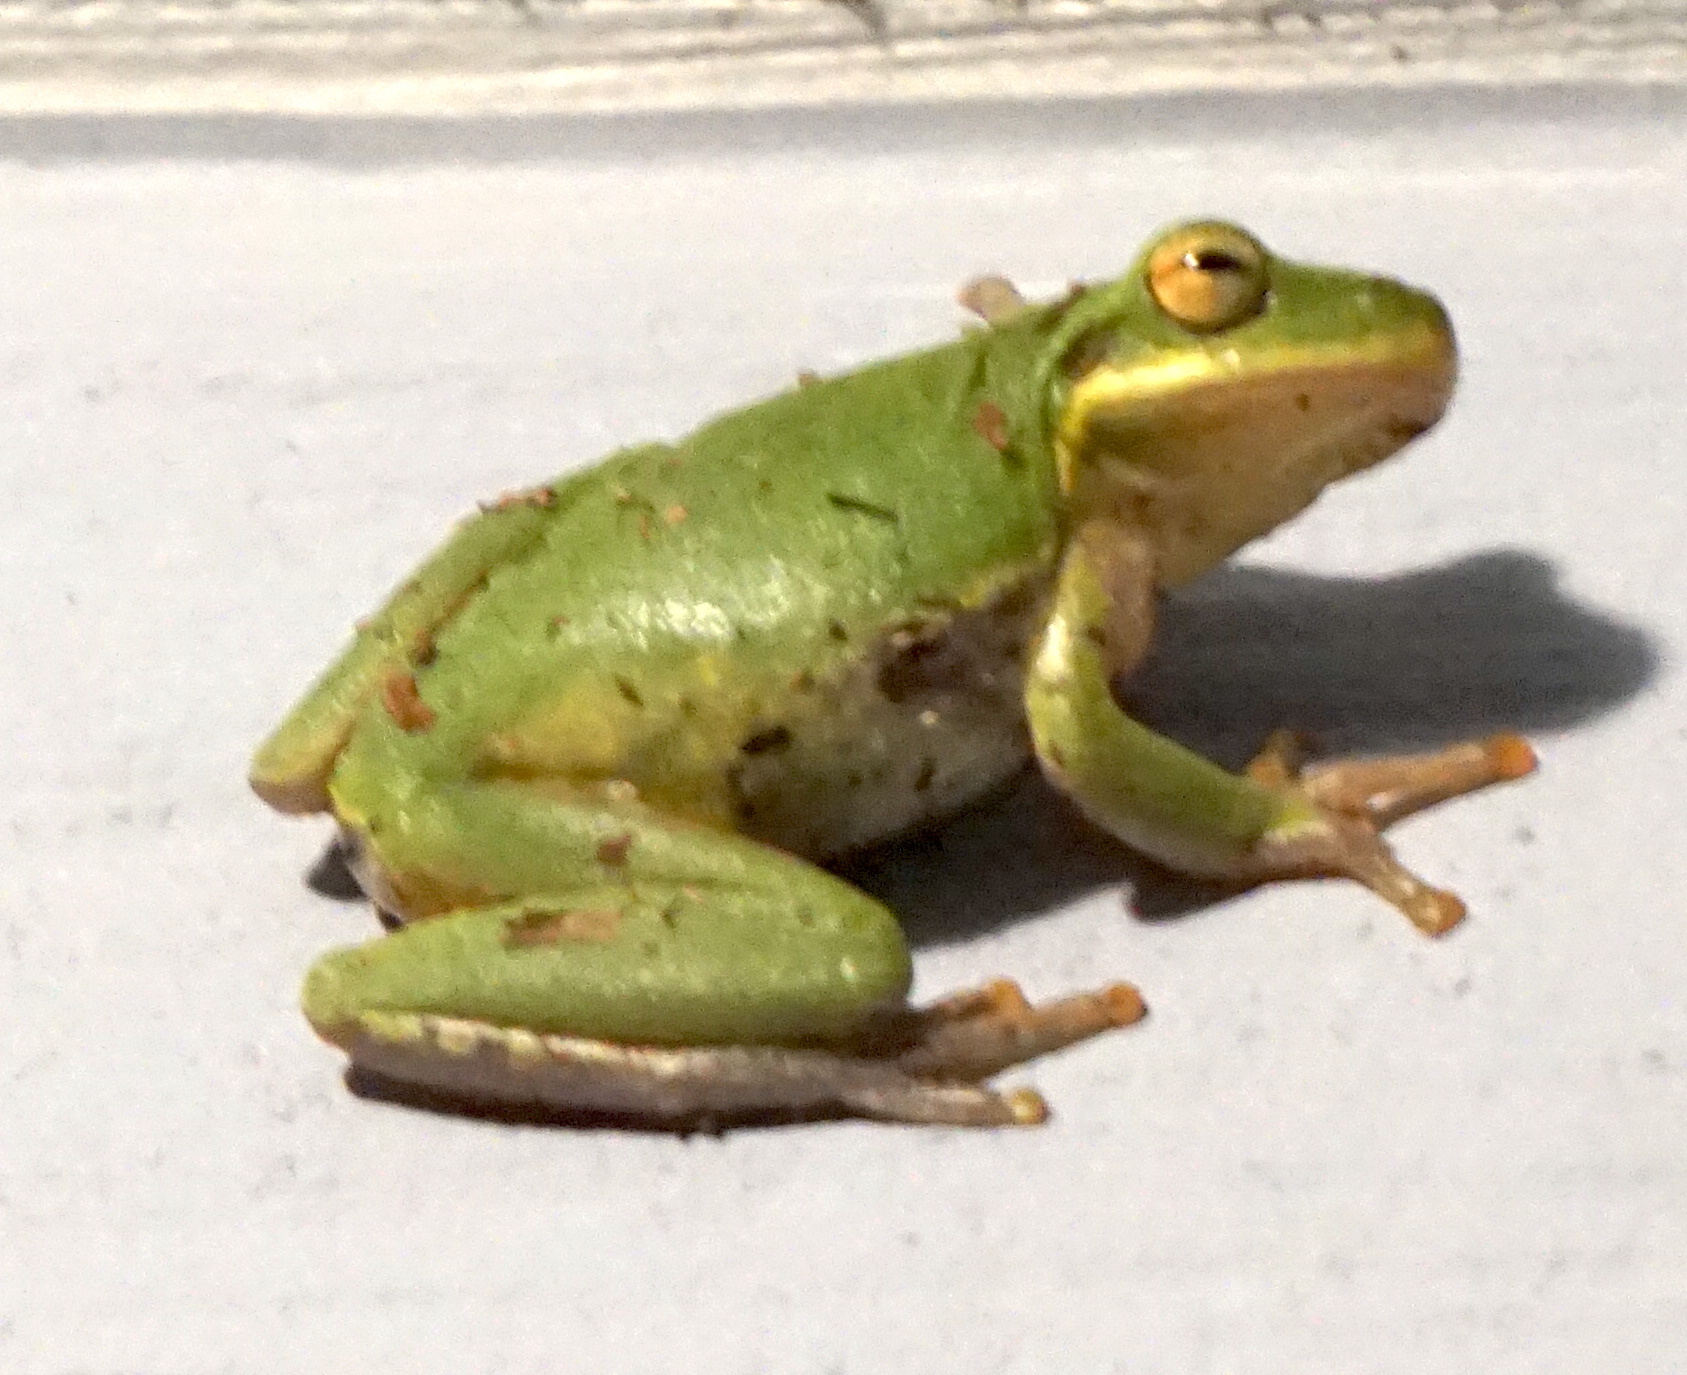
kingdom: Animalia
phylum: Chordata
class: Amphibia
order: Anura
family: Hylidae
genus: Dryophytes
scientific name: Dryophytes squirellus
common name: Squirrel treefrog
